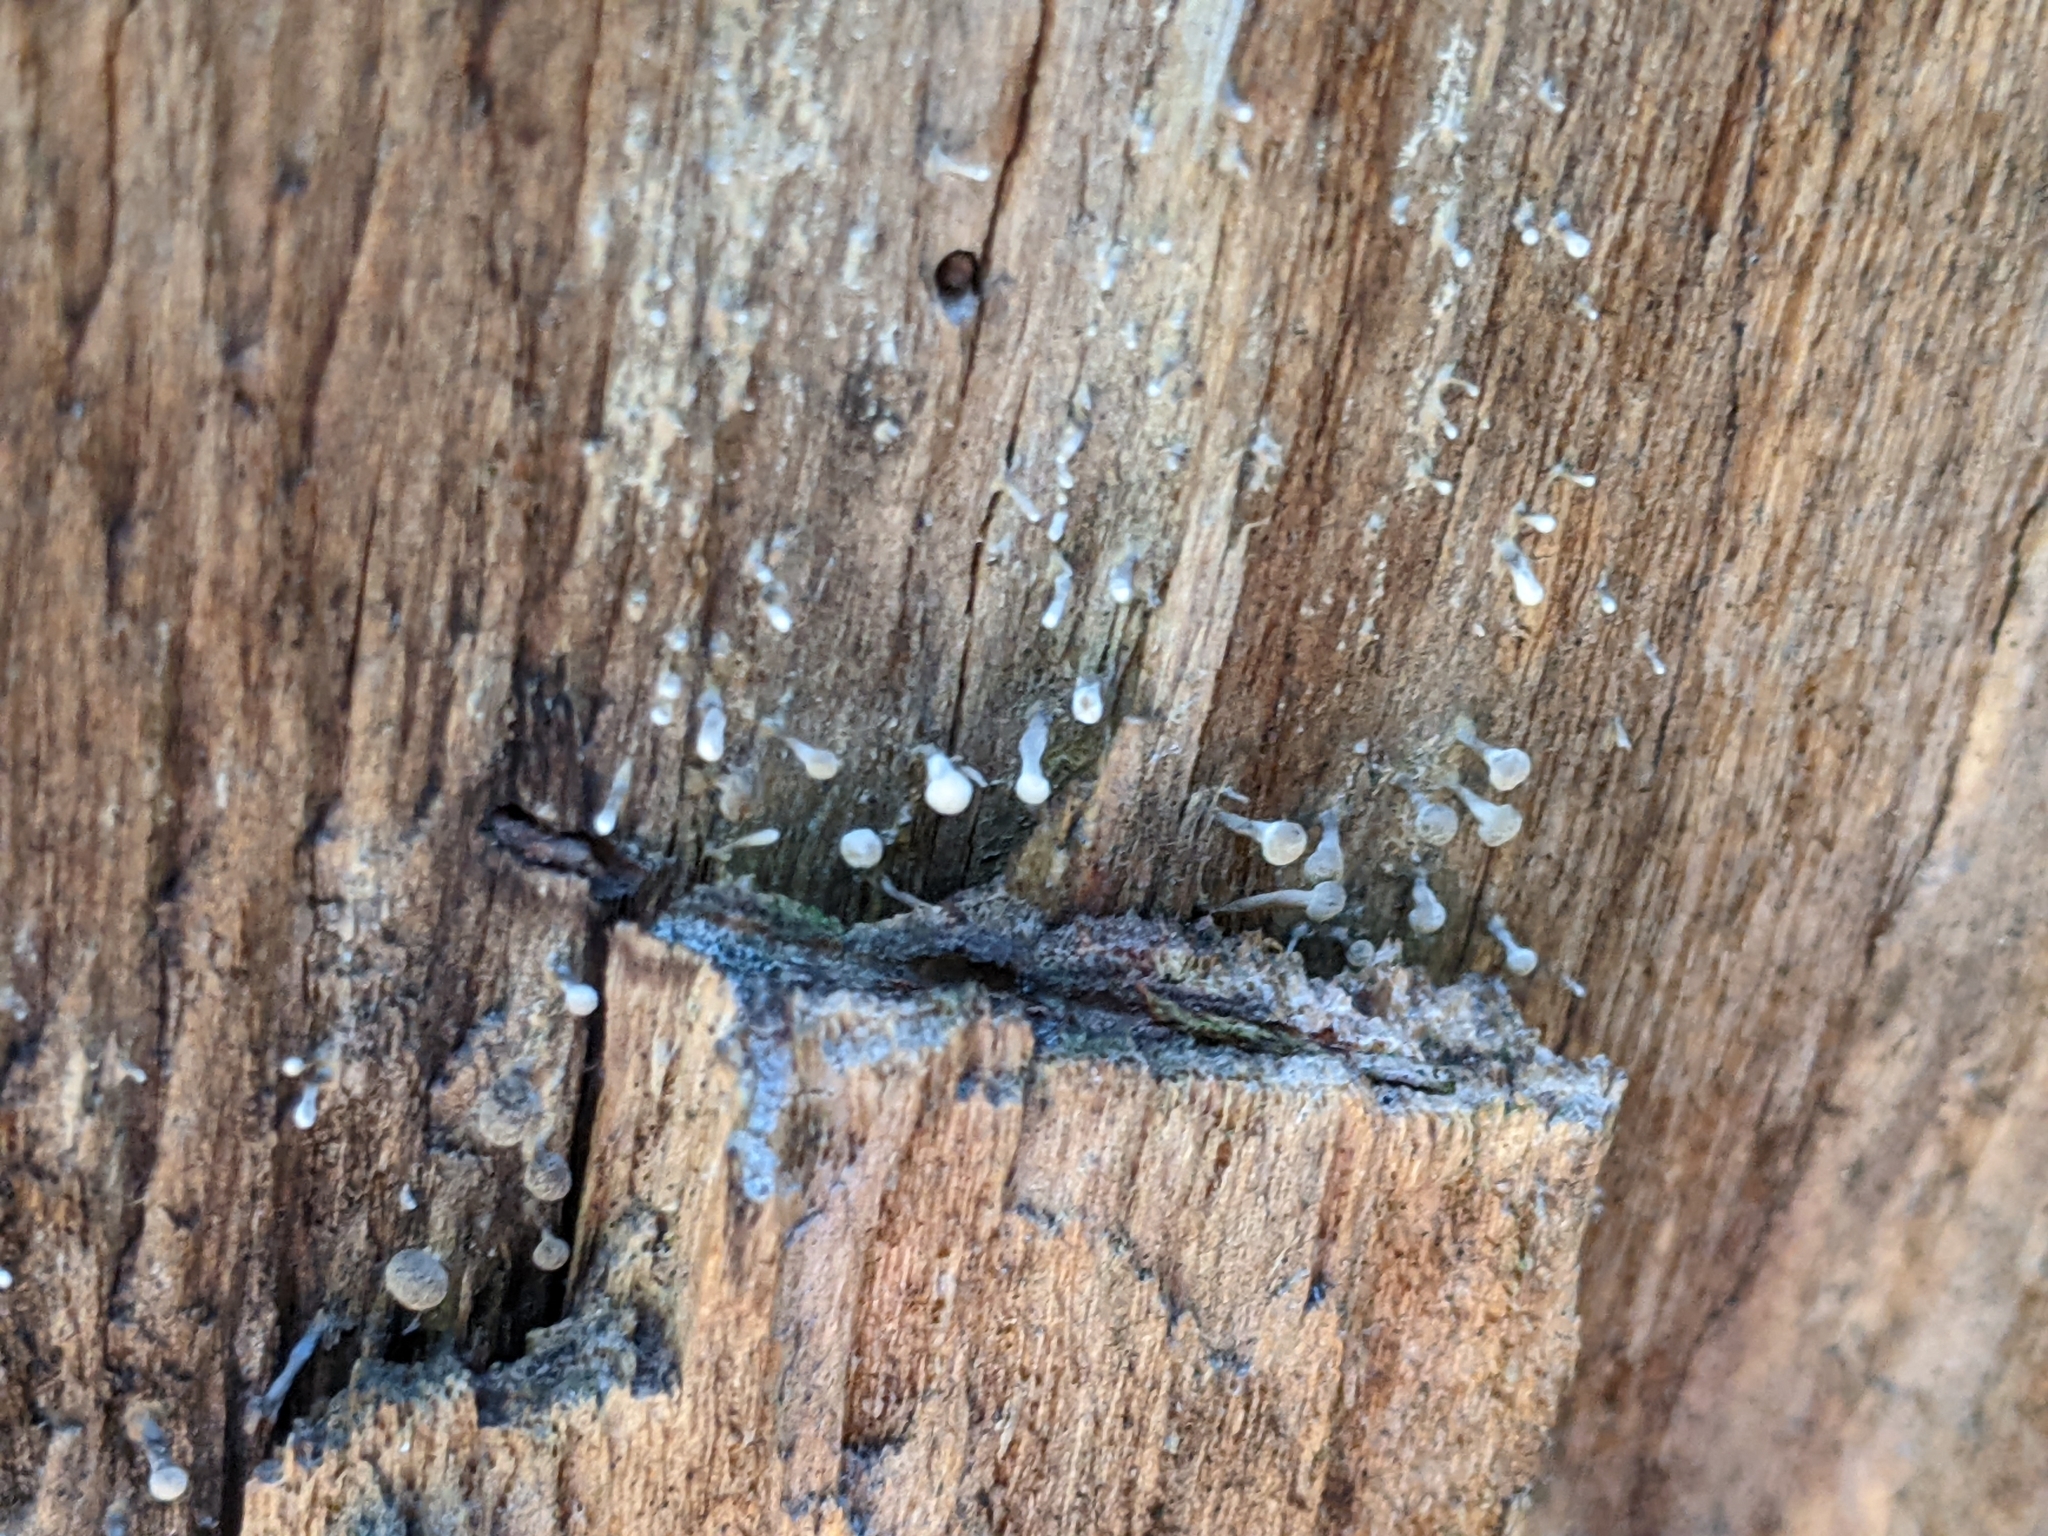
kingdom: Fungi
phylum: Basidiomycota
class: Atractiellomycetes
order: Atractiellales
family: Phleogenaceae
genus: Phleogena
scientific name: Phleogena faginea
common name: Fenugreek stalkball
